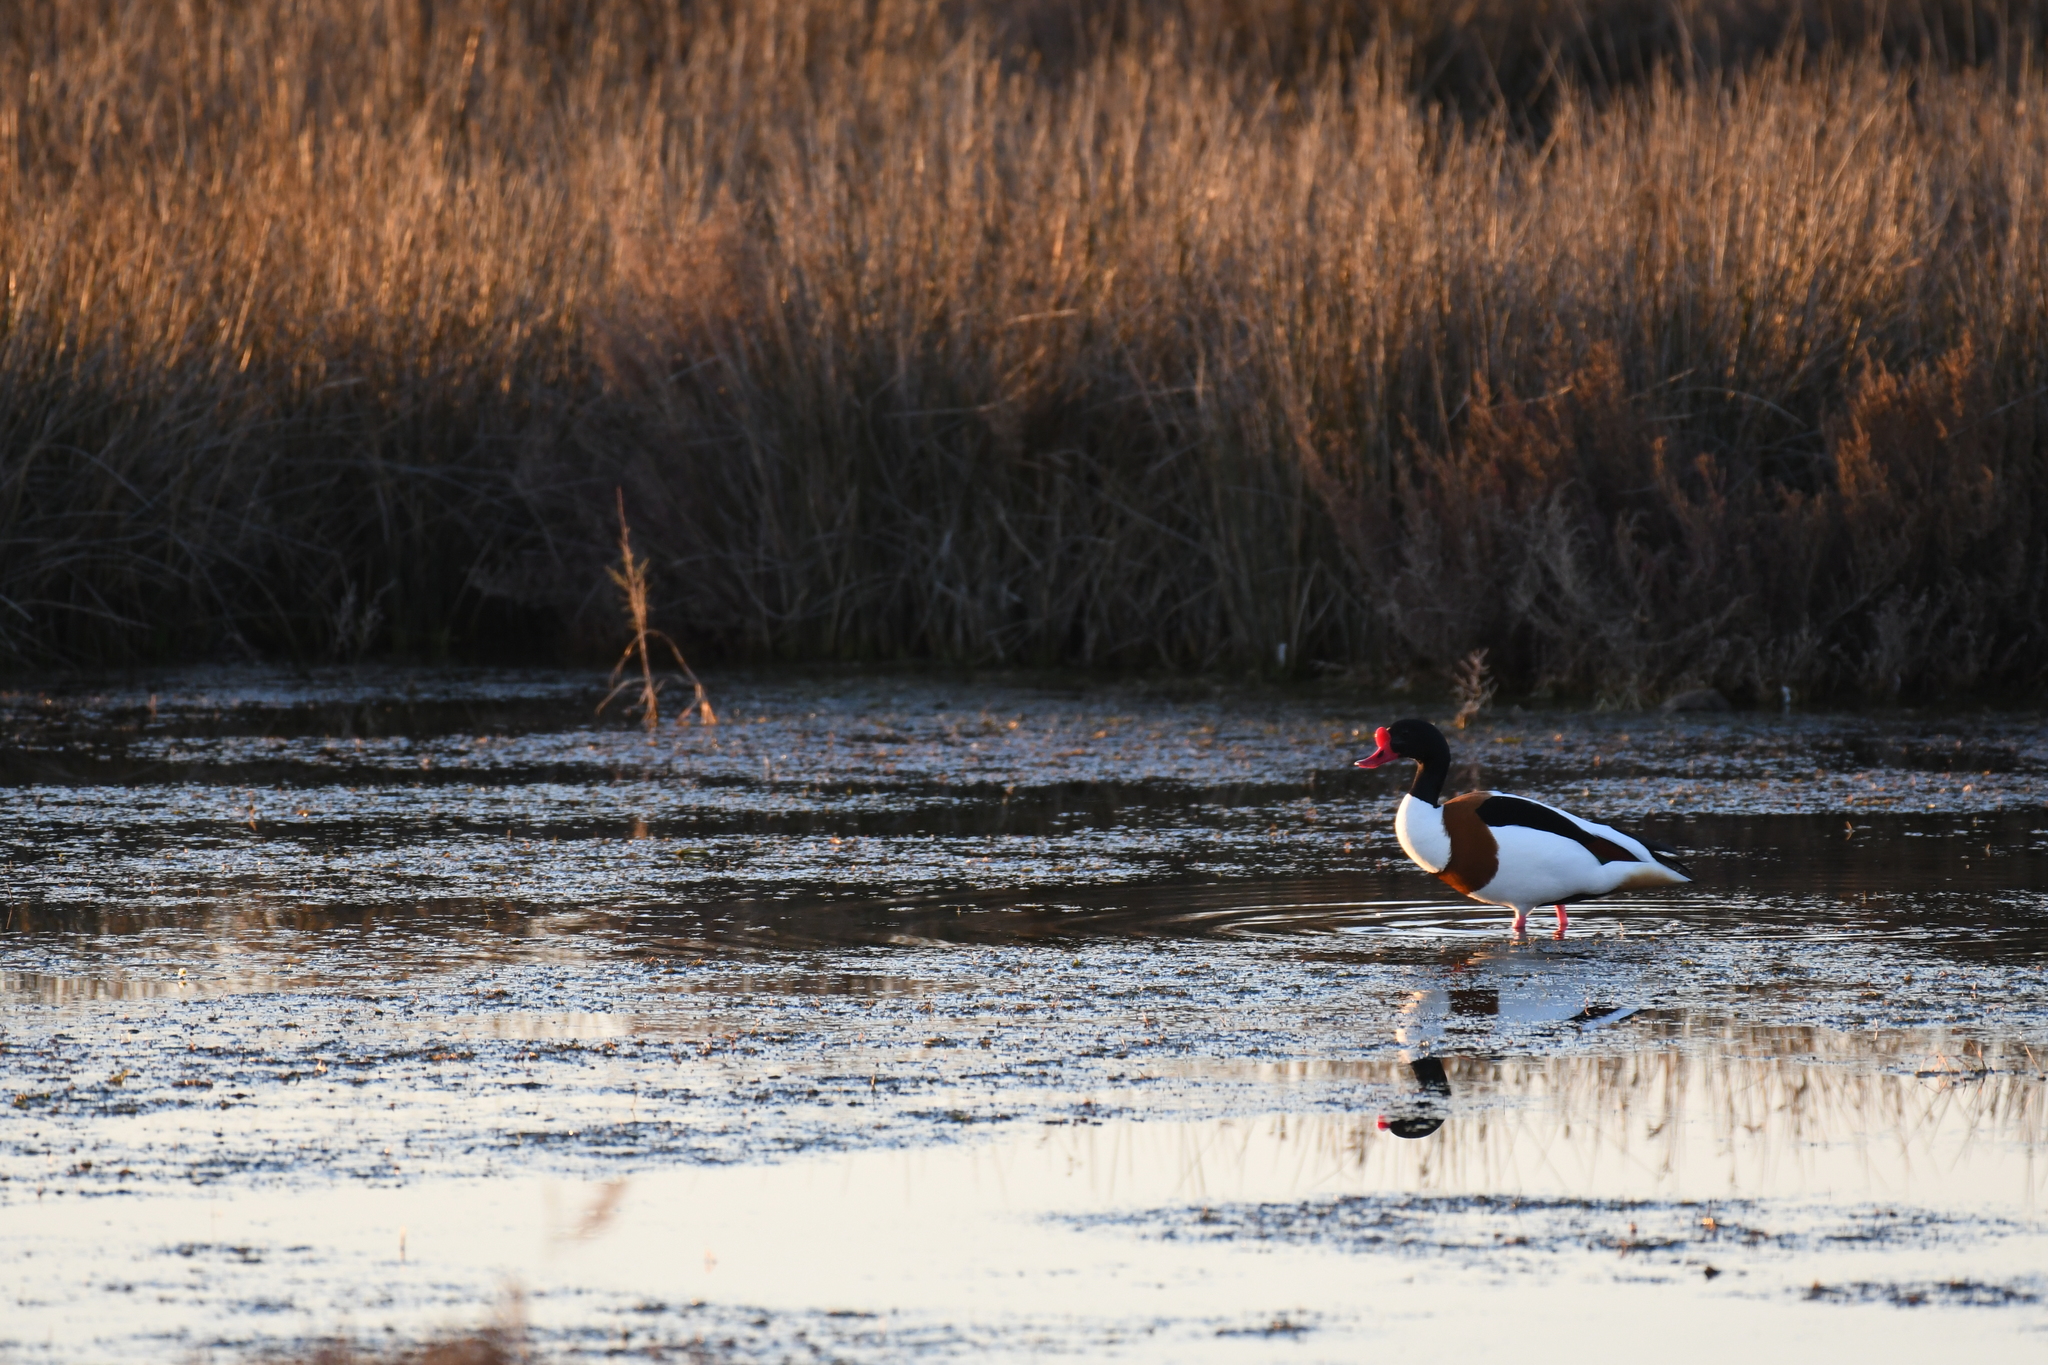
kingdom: Animalia
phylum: Chordata
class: Aves
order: Anseriformes
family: Anatidae
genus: Tadorna
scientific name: Tadorna tadorna
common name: Common shelduck
